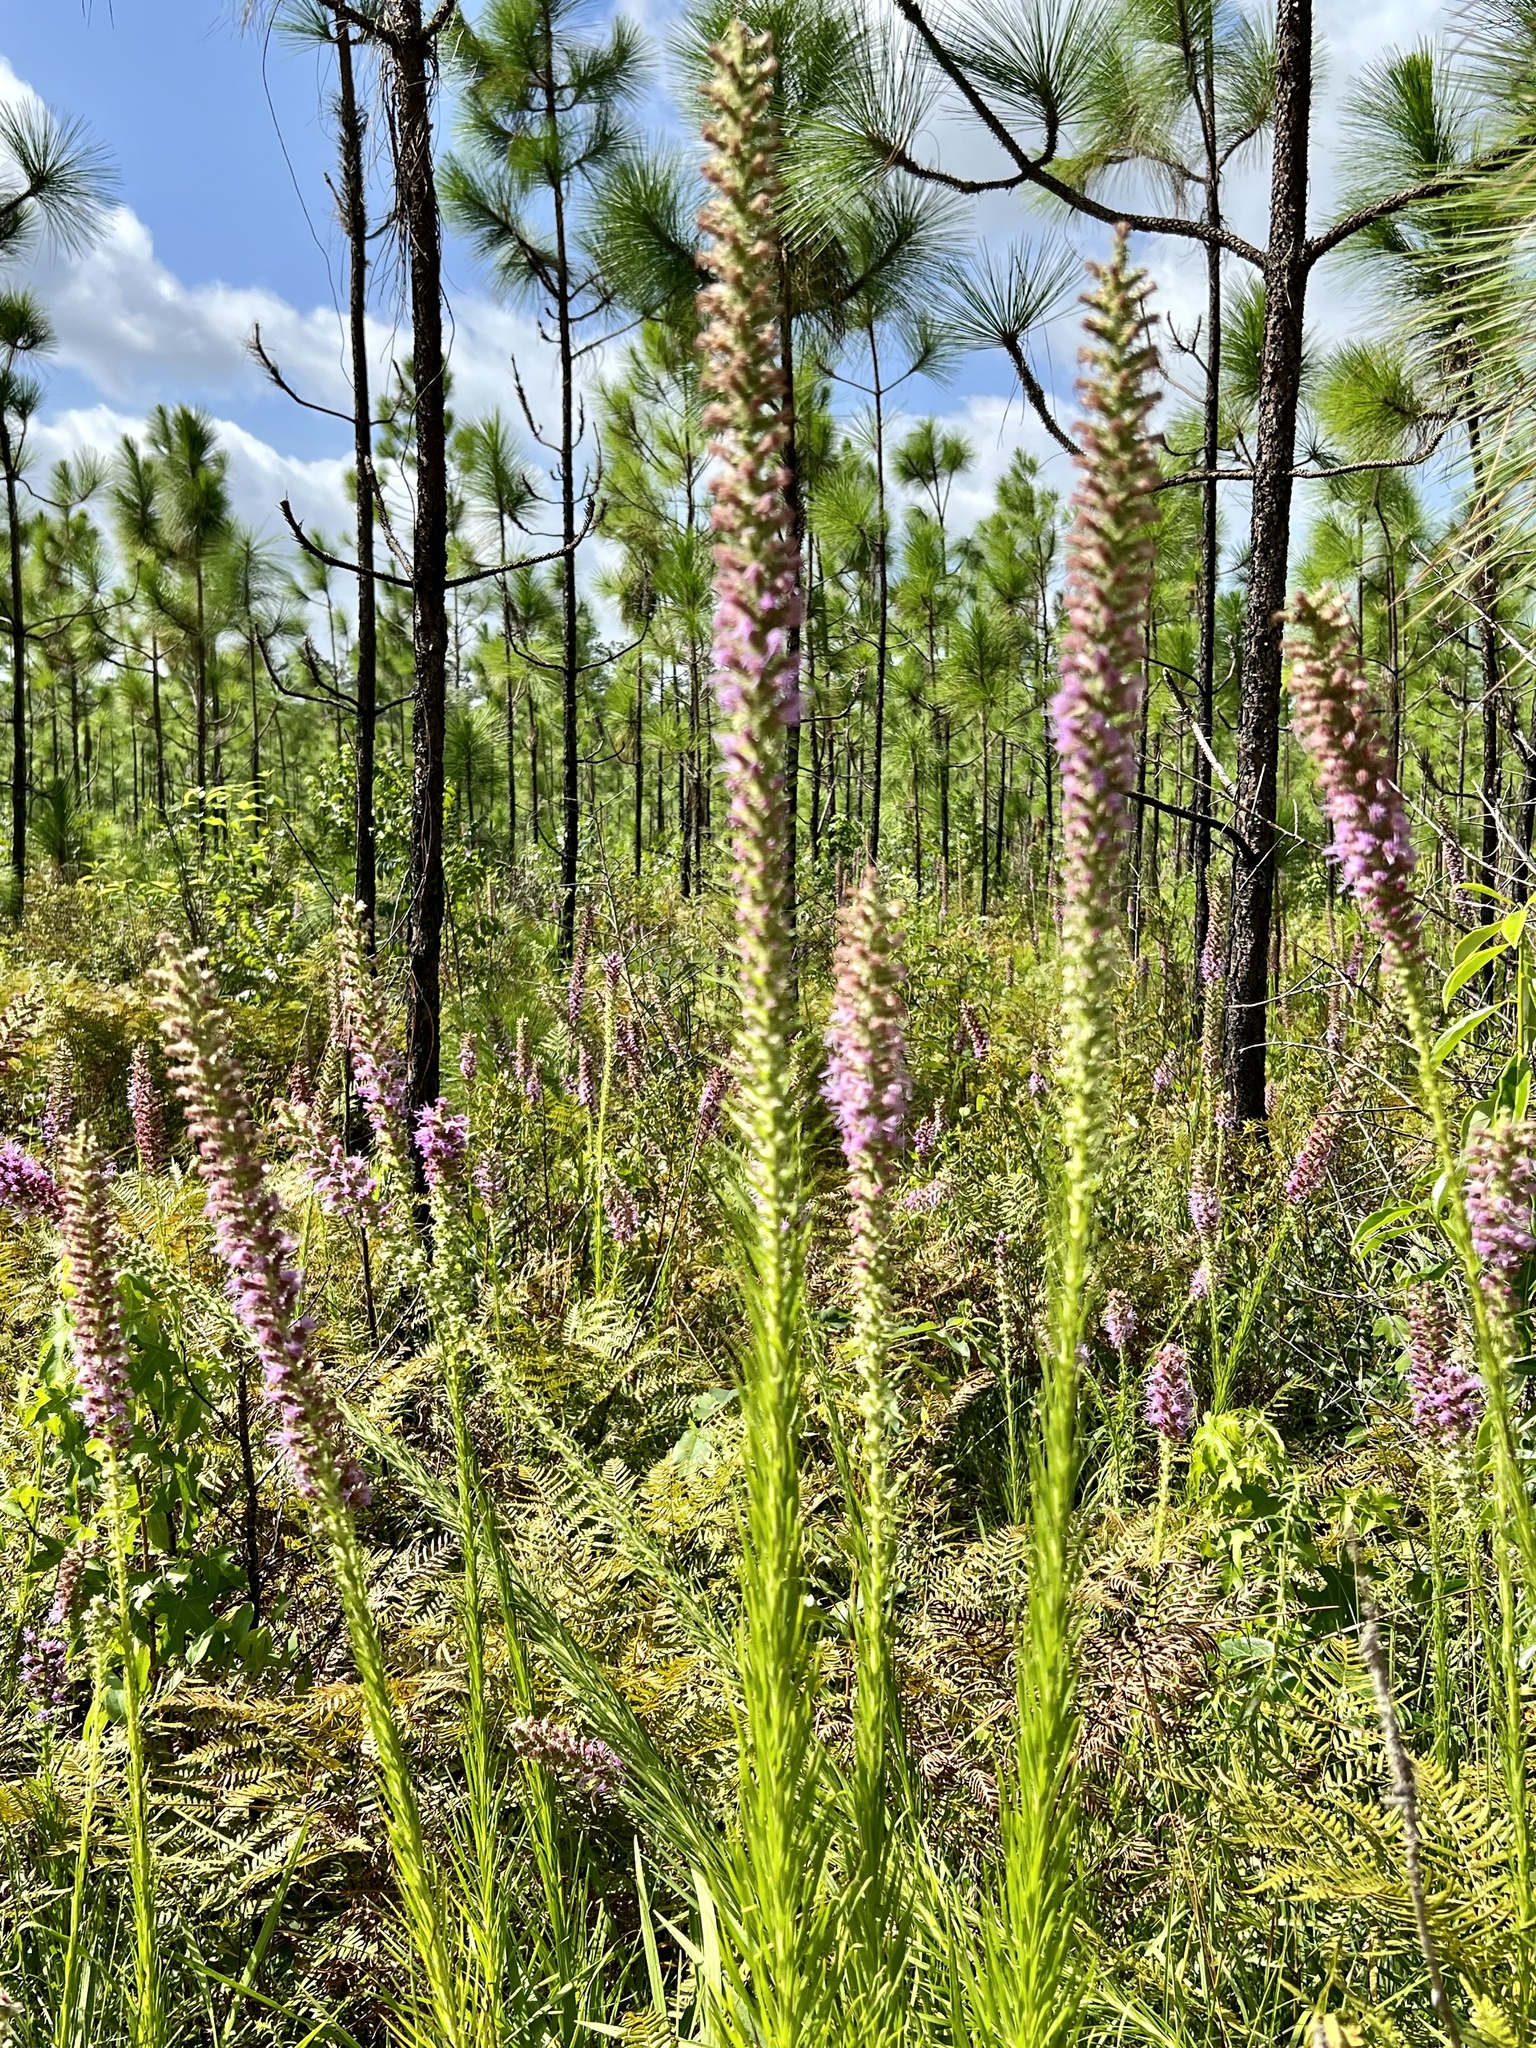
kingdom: Plantae
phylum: Tracheophyta
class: Magnoliopsida
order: Asterales
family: Asteraceae
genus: Liatris
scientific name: Liatris pycnostachya
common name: Cattail gayfeather
